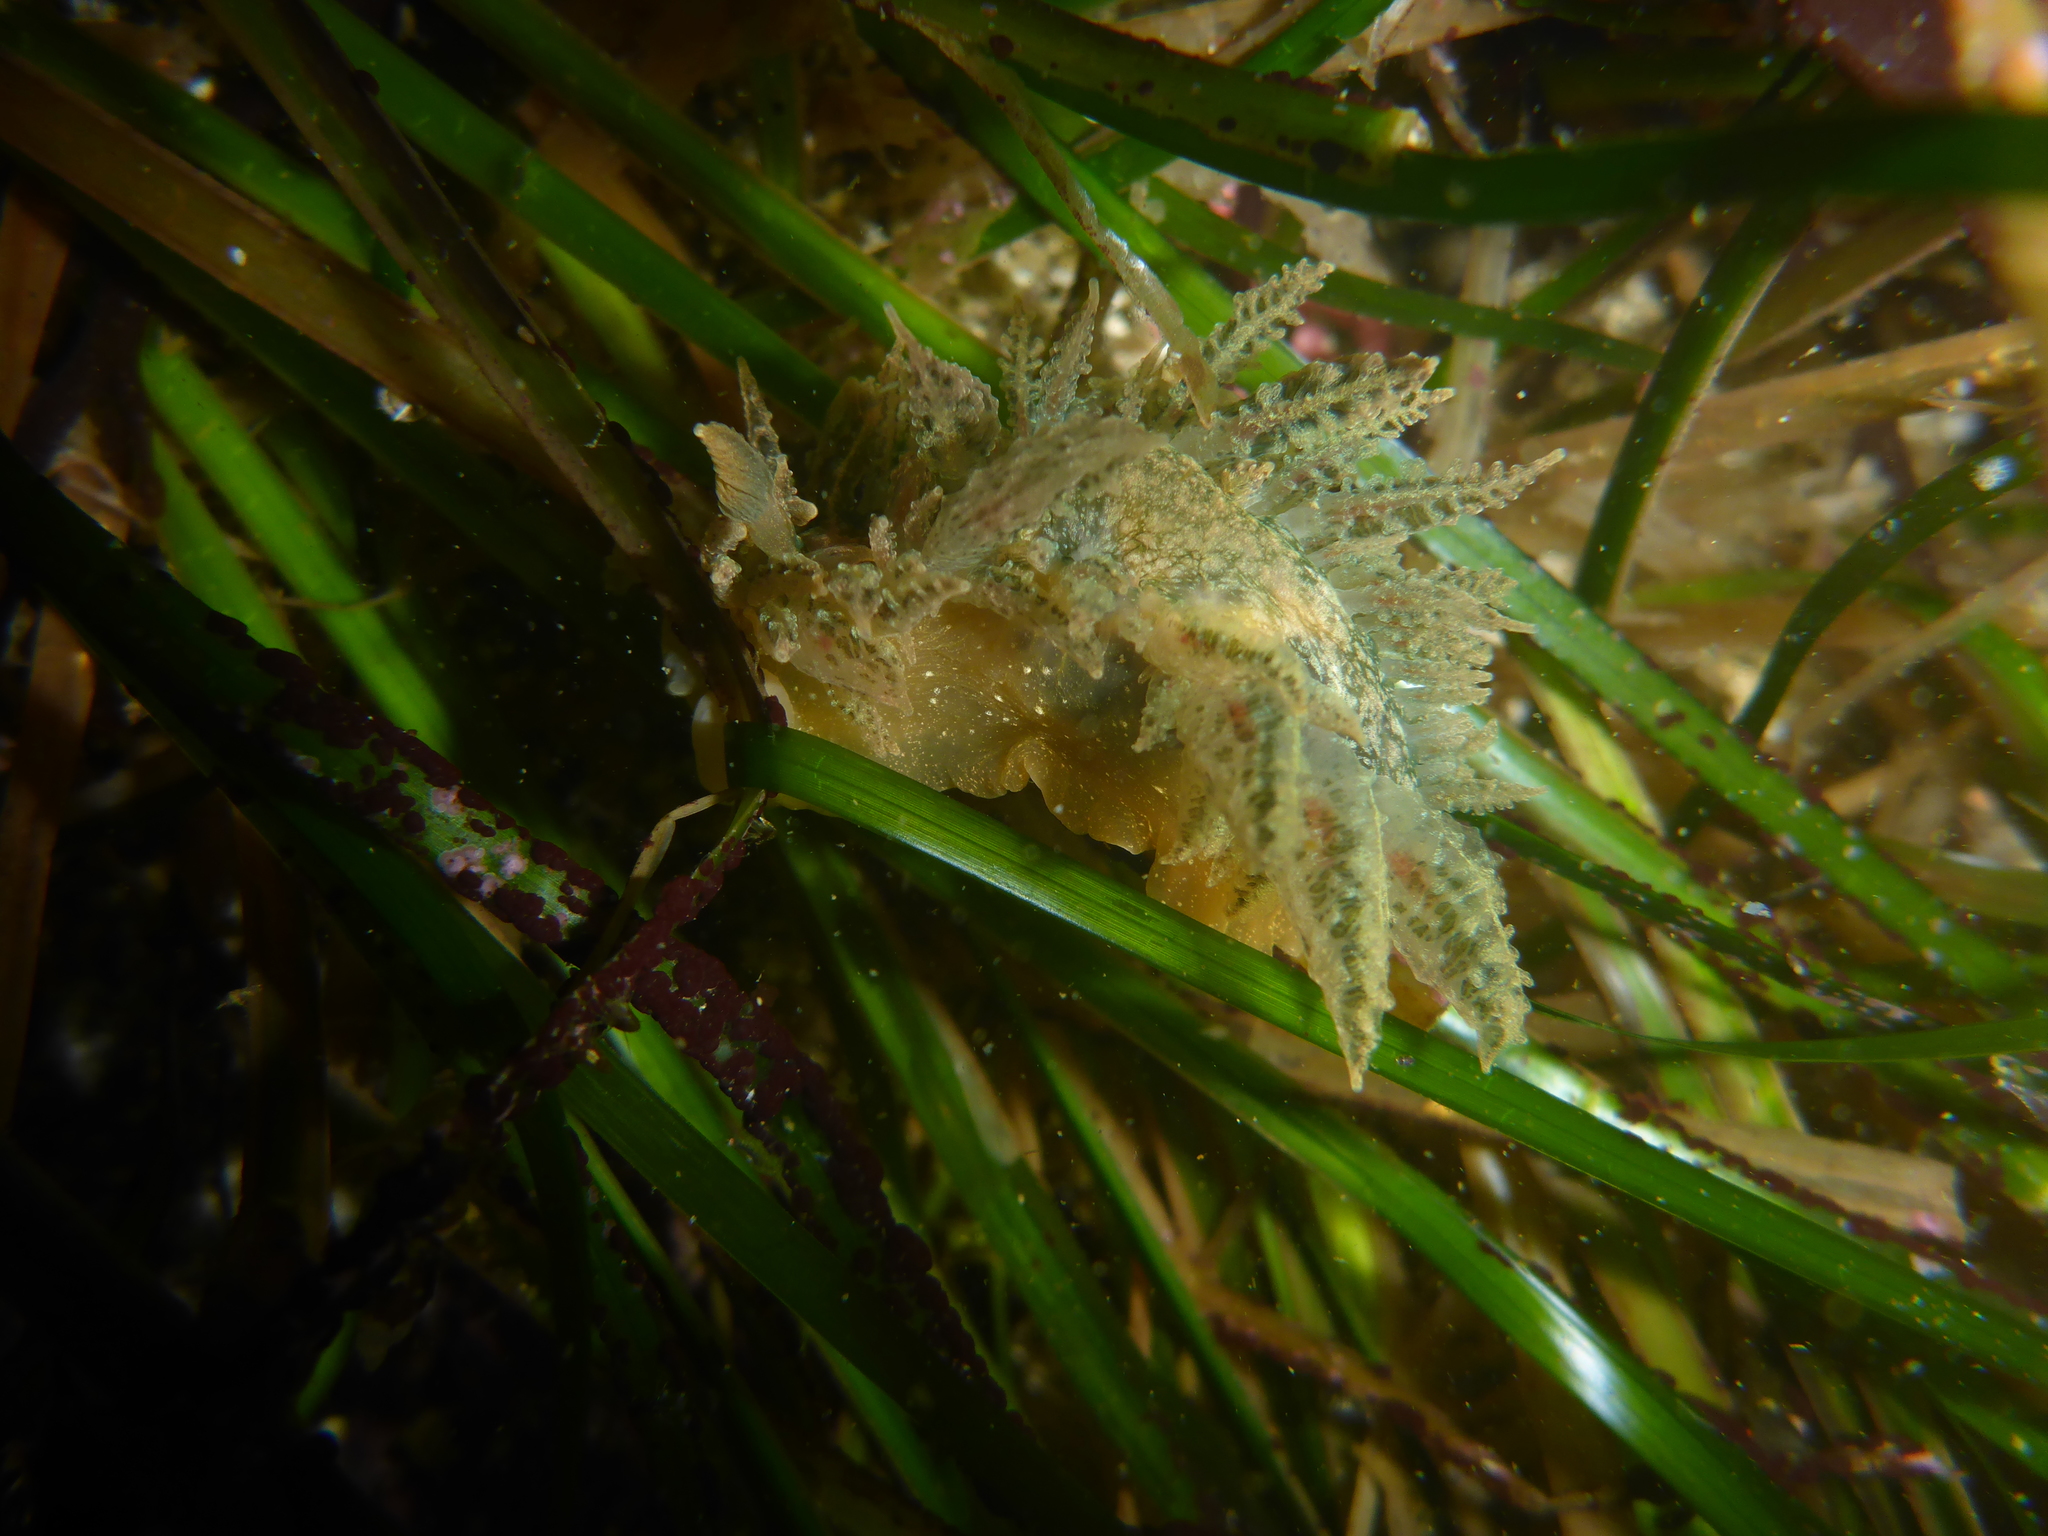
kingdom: Animalia
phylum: Mollusca
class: Gastropoda
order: Nudibranchia
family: Dironidae
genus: Dirona
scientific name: Dirona picta
